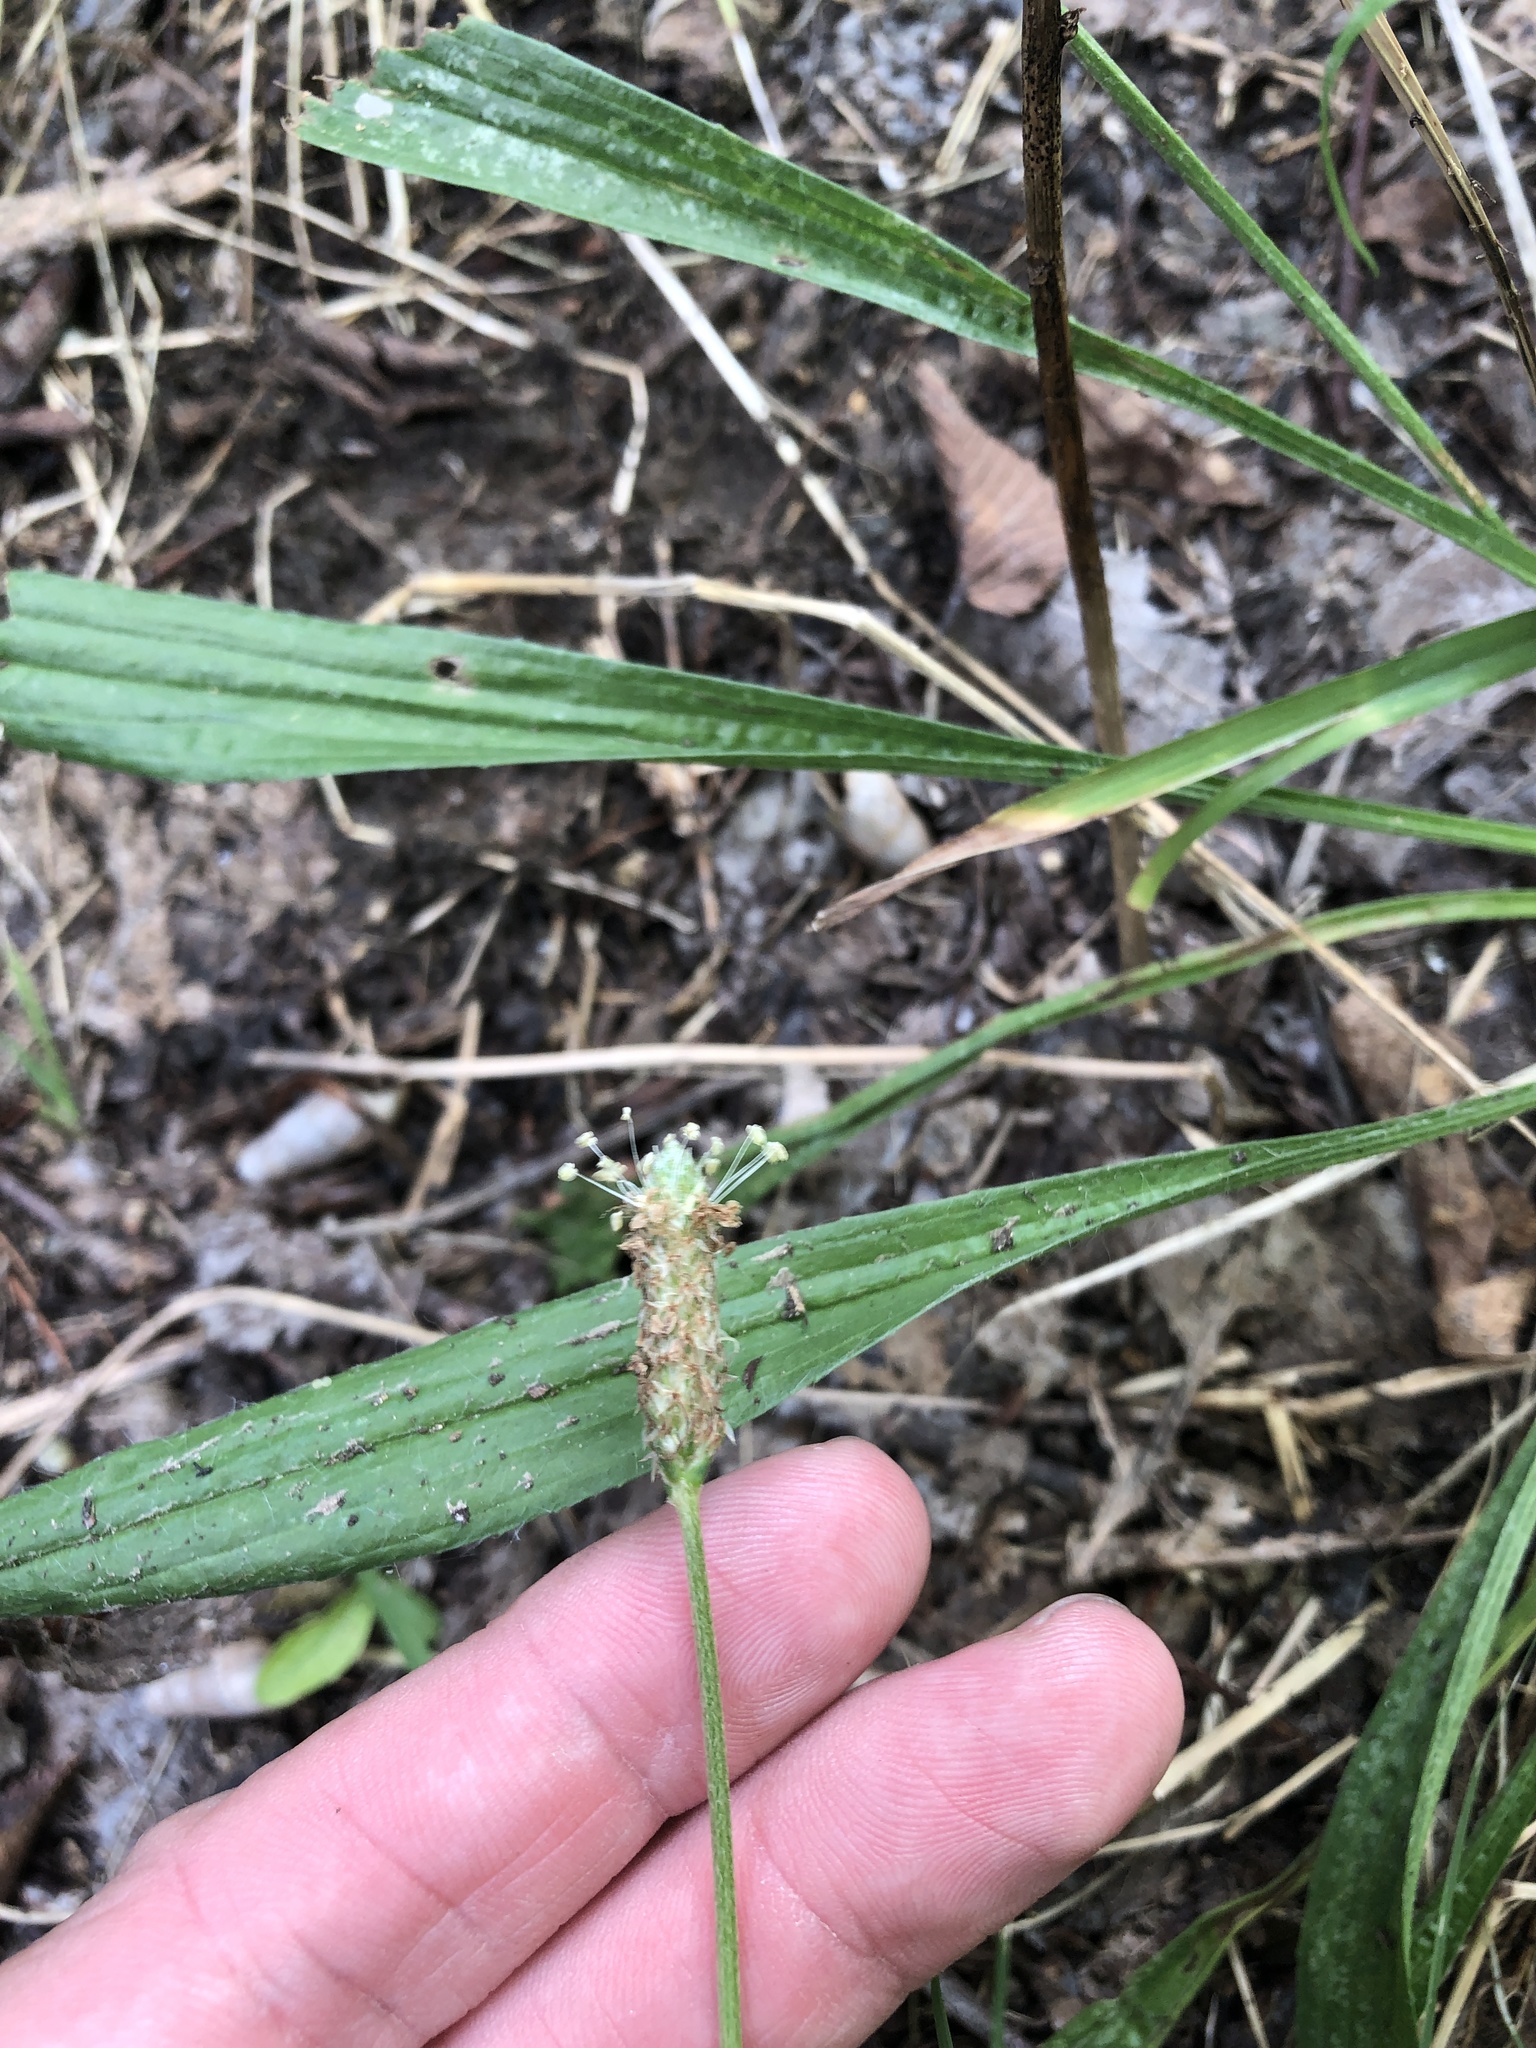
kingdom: Plantae
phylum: Tracheophyta
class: Magnoliopsida
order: Lamiales
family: Plantaginaceae
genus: Plantago
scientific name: Plantago lanceolata
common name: Ribwort plantain
